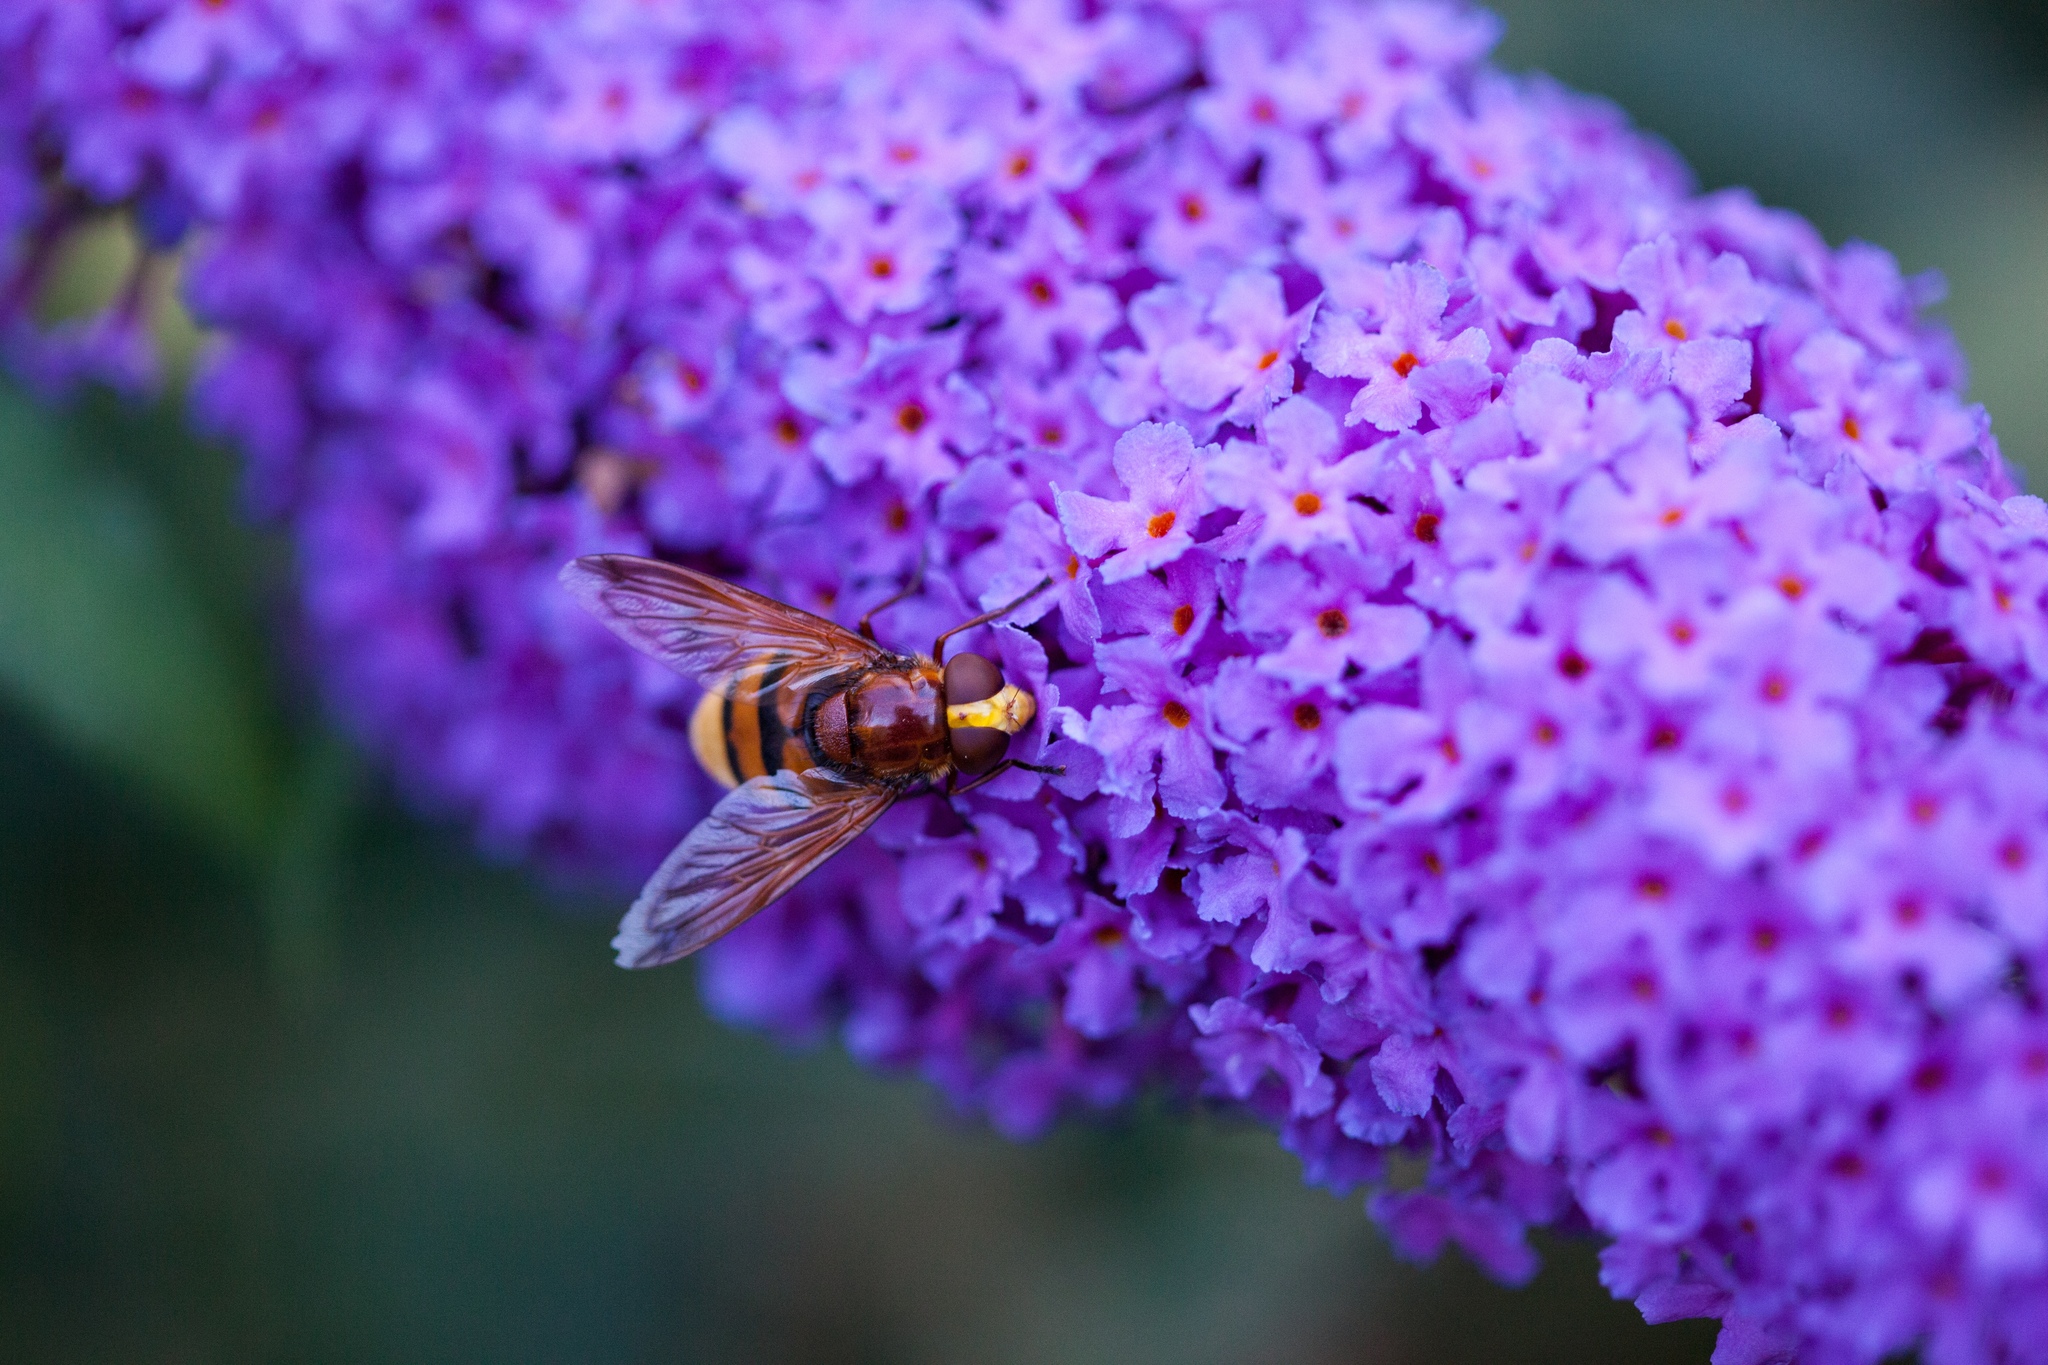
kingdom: Animalia
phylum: Arthropoda
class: Insecta
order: Diptera
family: Syrphidae
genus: Volucella
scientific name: Volucella zonaria
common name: Hornet hoverfly
